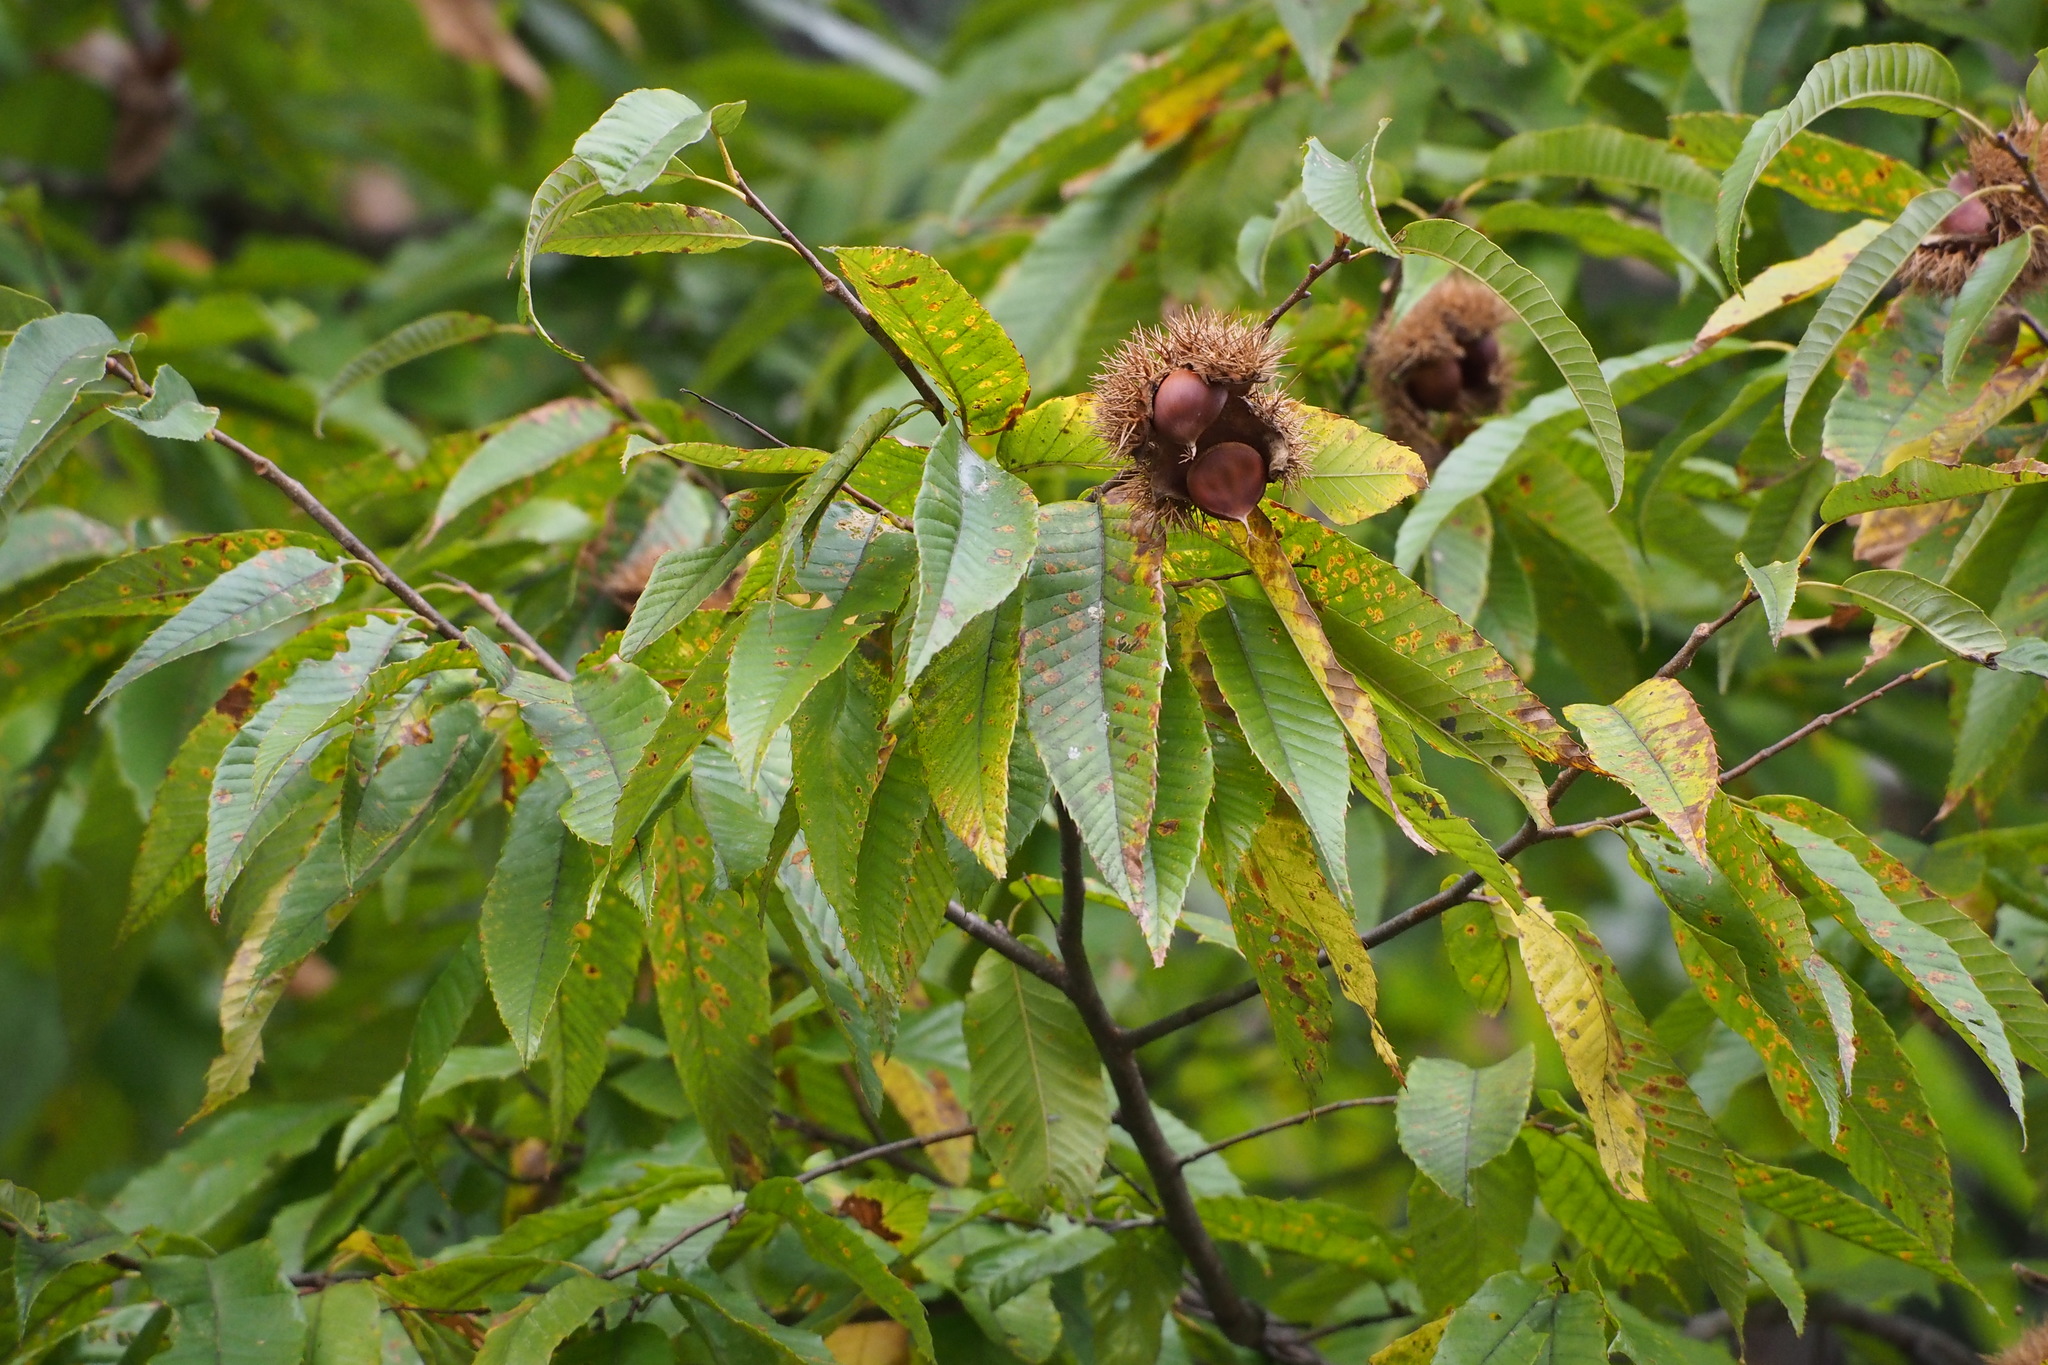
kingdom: Plantae
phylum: Tracheophyta
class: Magnoliopsida
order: Fagales
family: Fagaceae
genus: Castanea
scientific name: Castanea crenata
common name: Japanese chestnut
